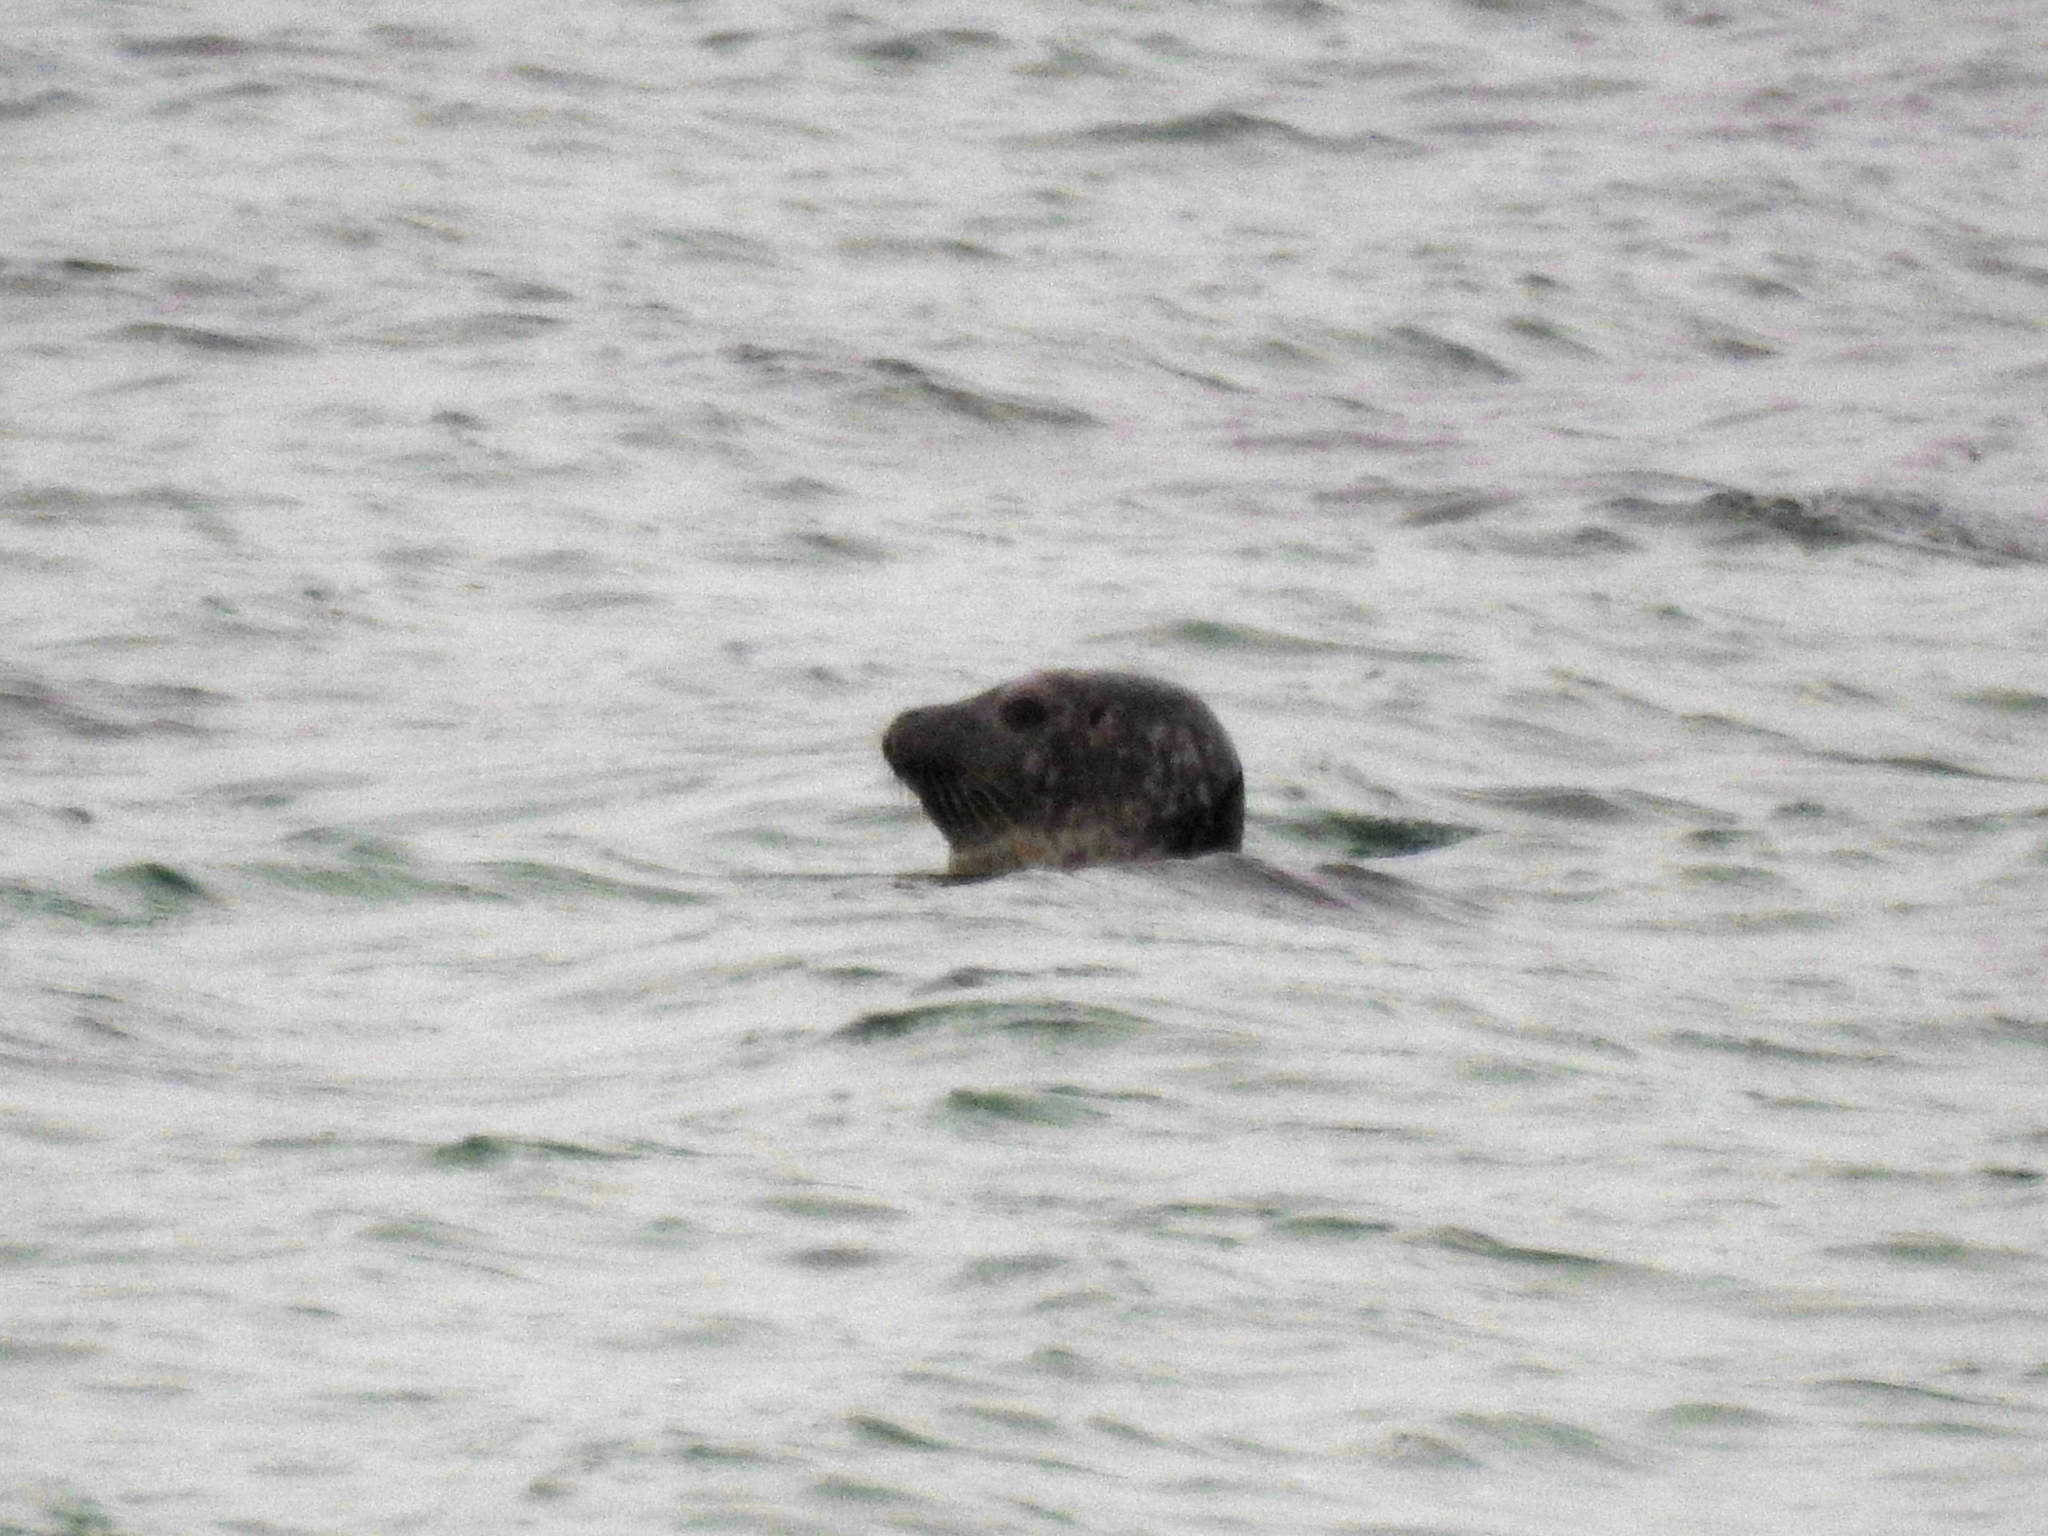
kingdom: Animalia
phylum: Chordata
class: Mammalia
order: Carnivora
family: Phocidae
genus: Phoca
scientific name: Phoca vitulina
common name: Harbor seal
